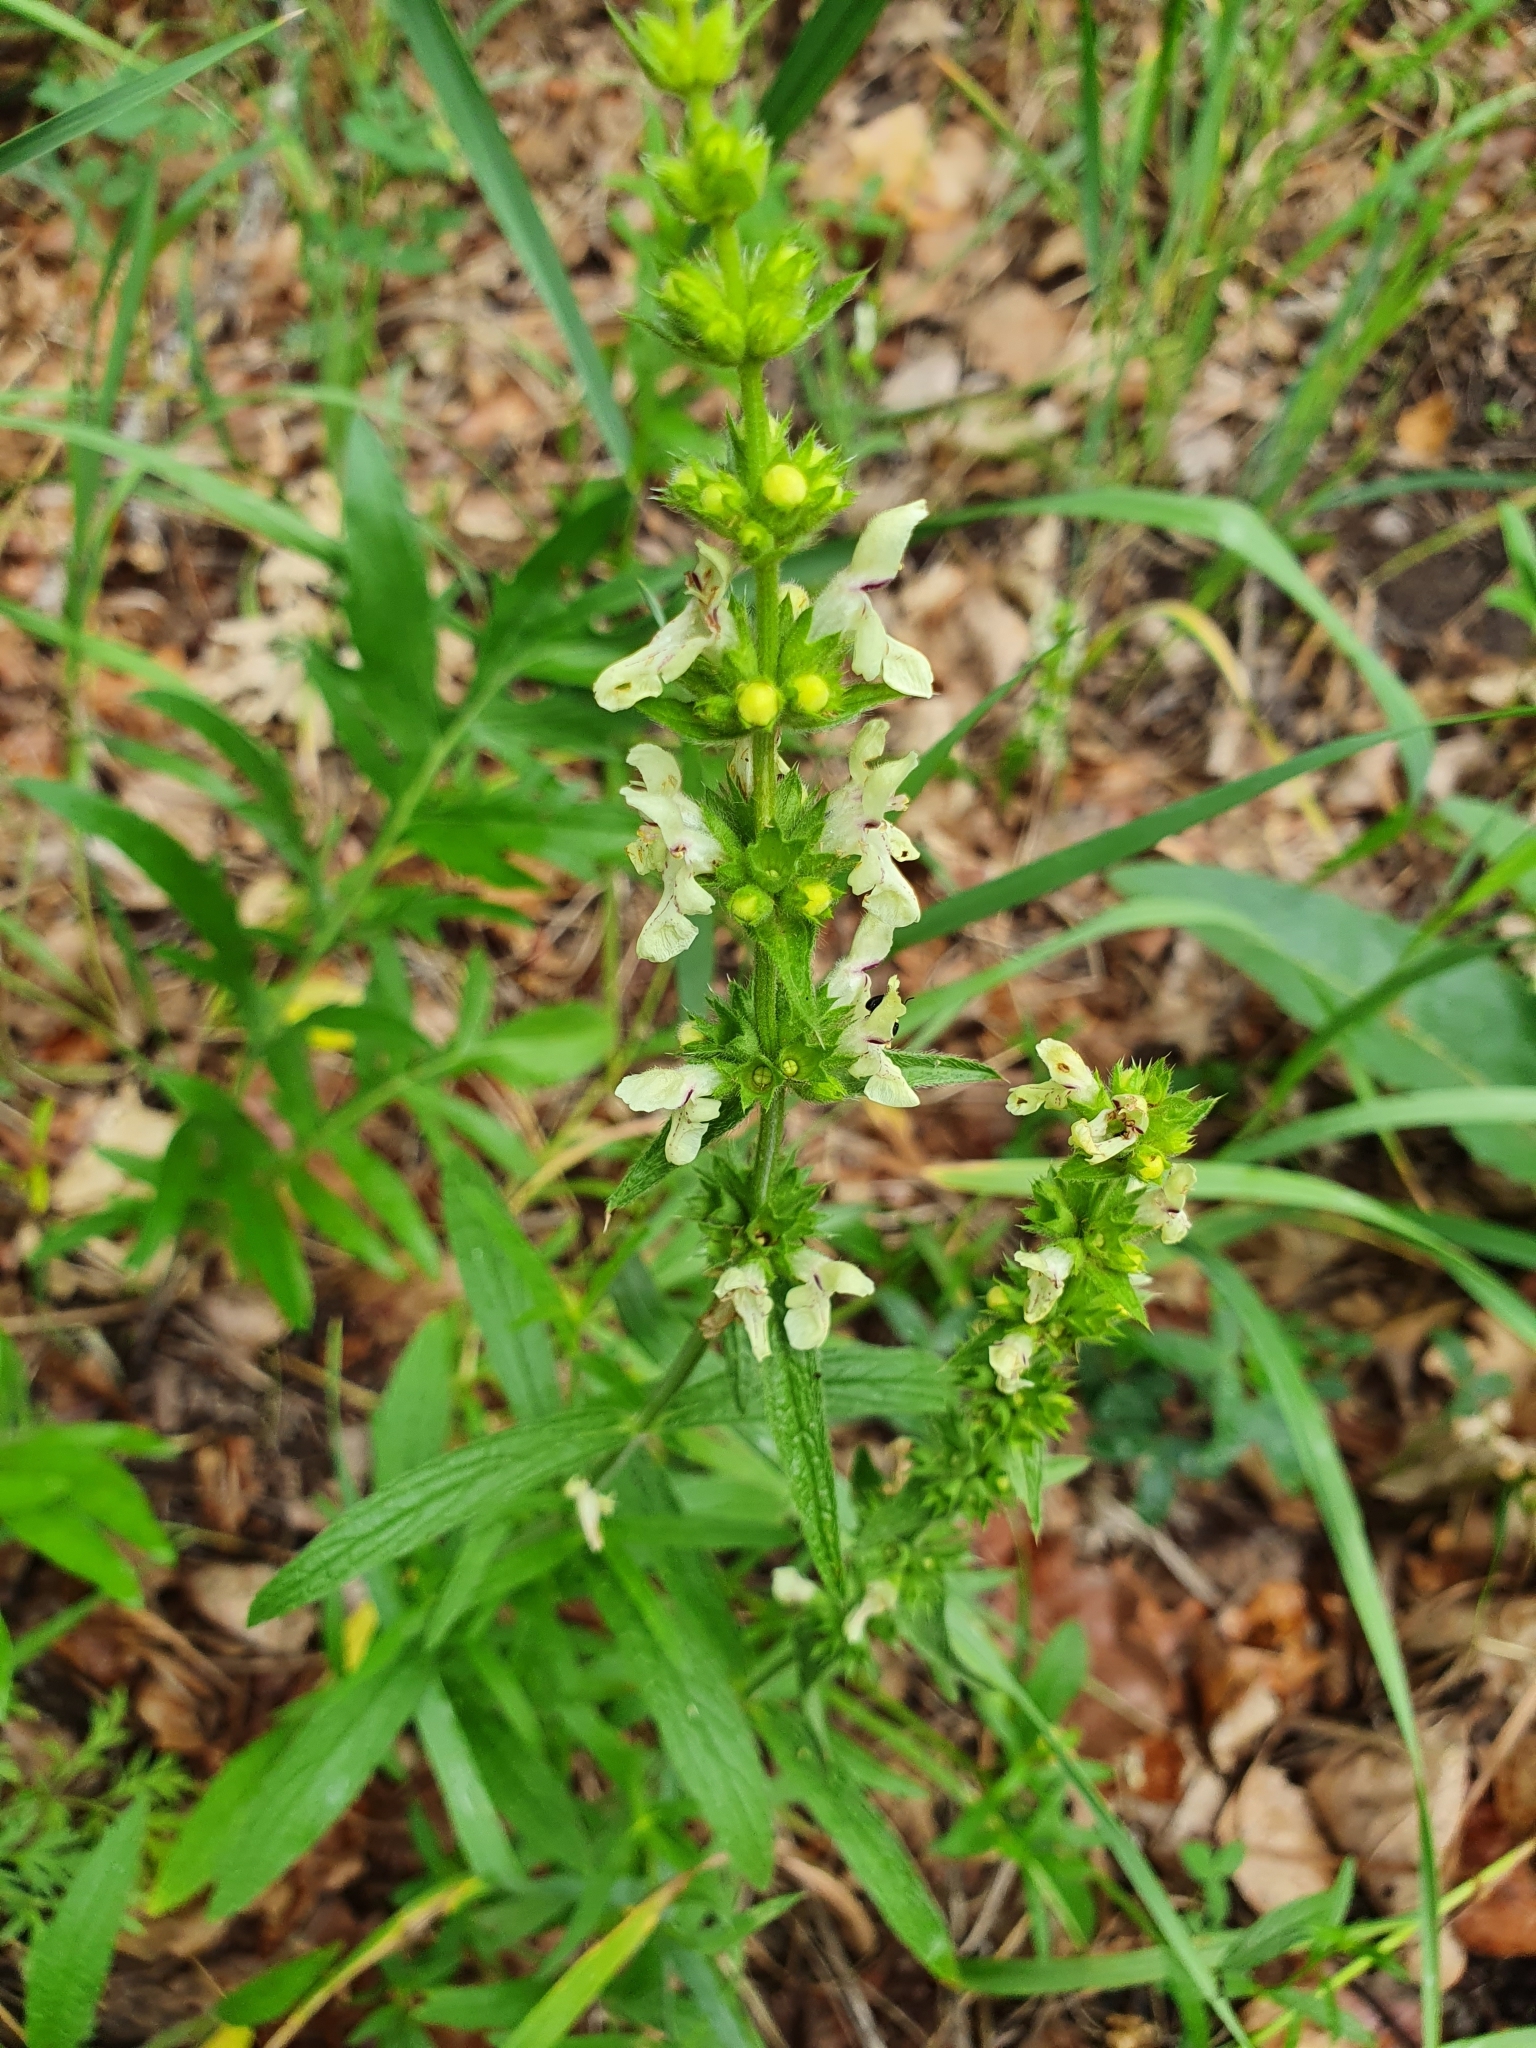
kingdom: Plantae
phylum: Tracheophyta
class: Magnoliopsida
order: Lamiales
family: Lamiaceae
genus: Stachys
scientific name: Stachys recta
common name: Perennial yellow-woundwort
